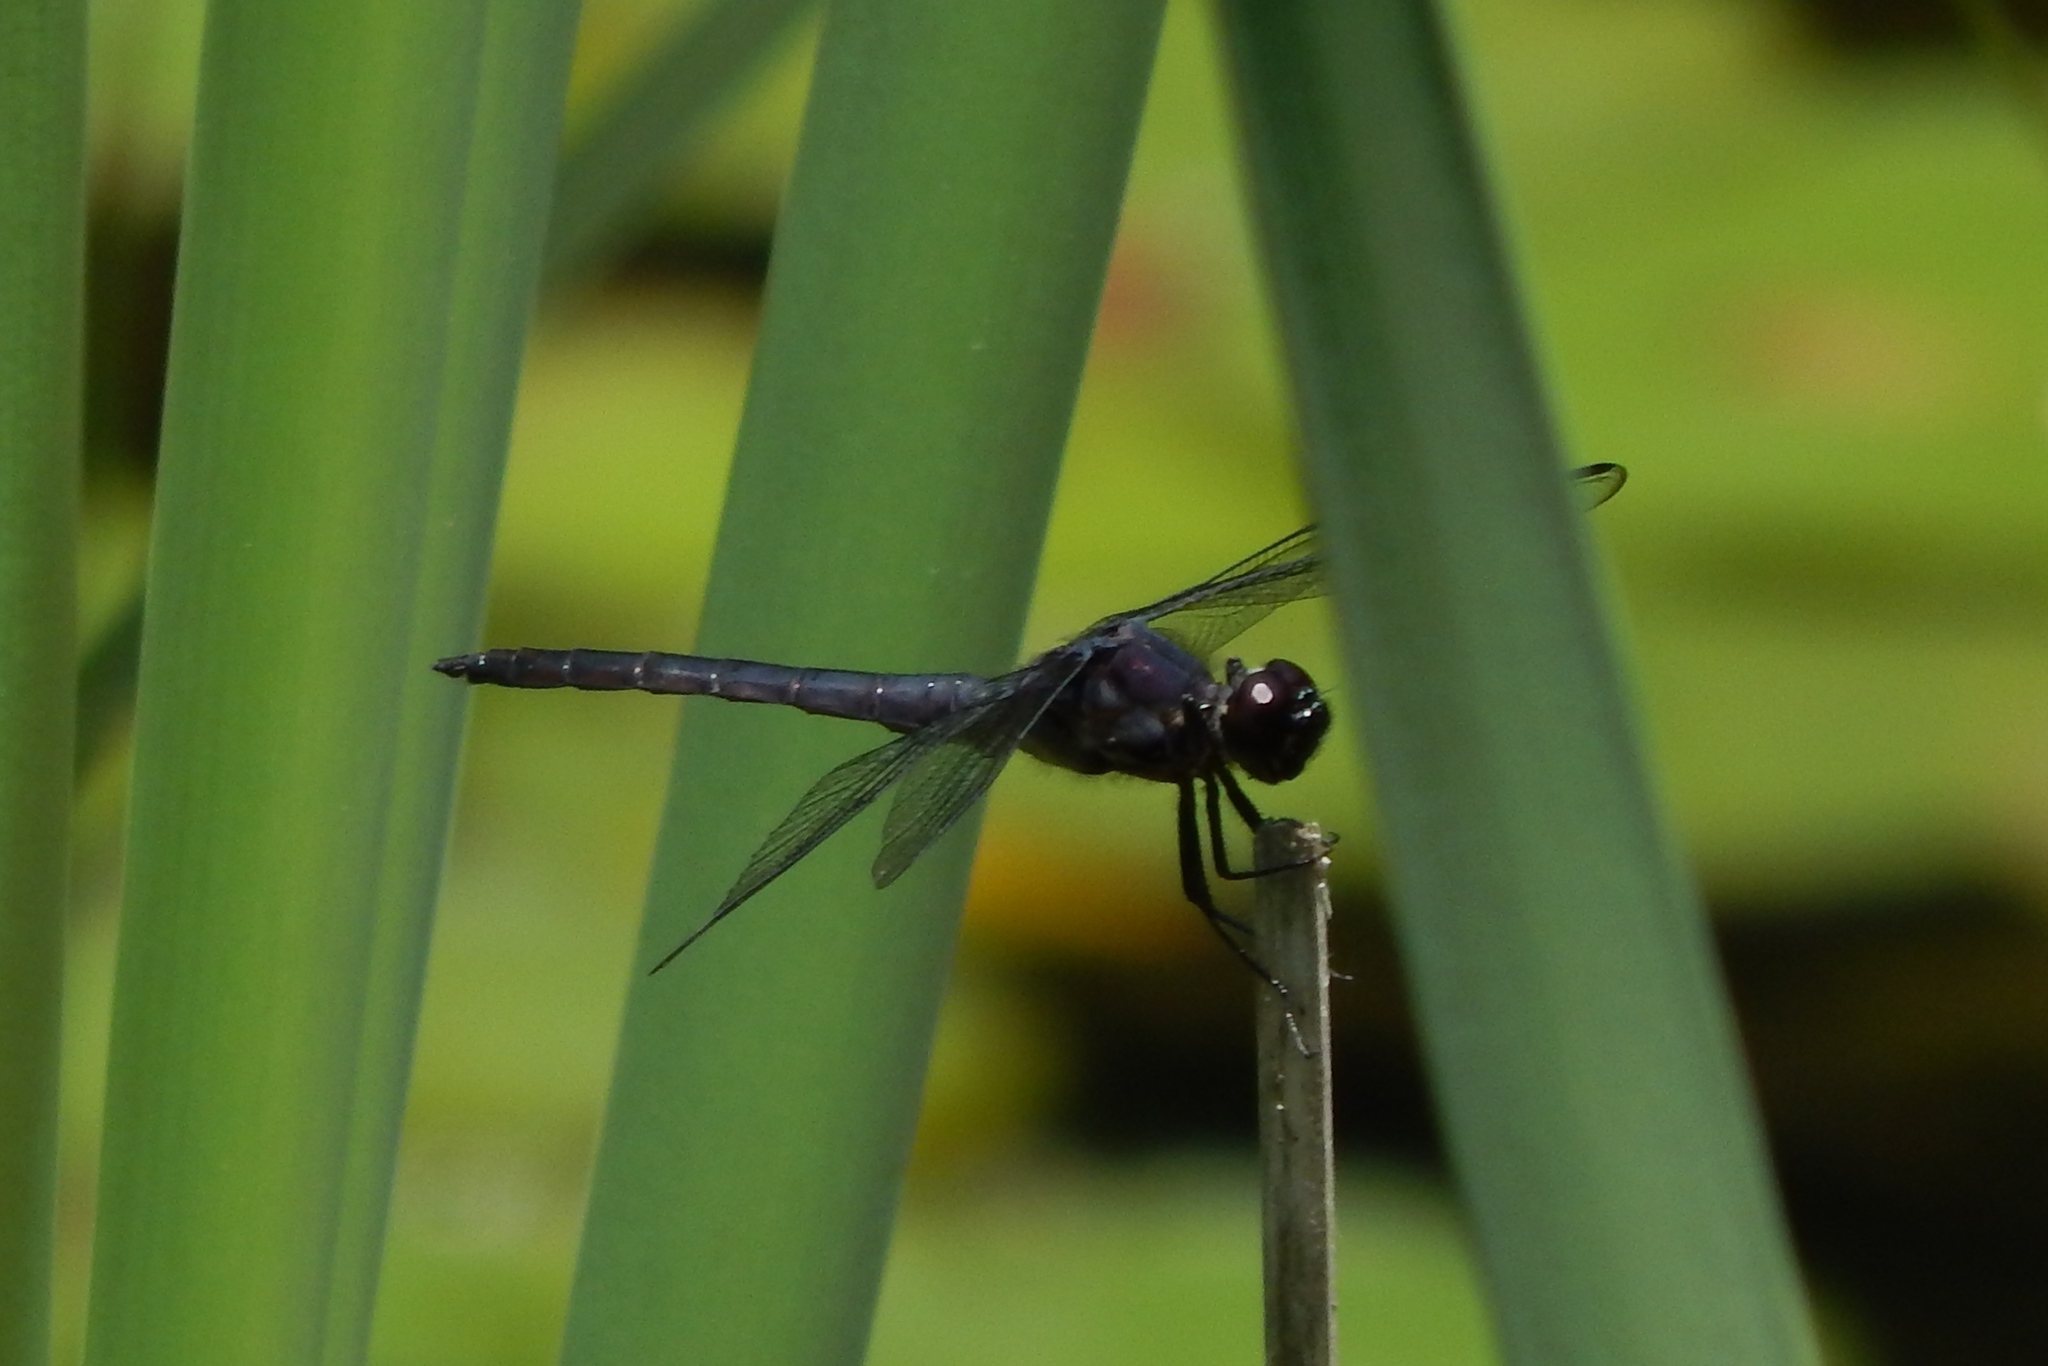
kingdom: Animalia
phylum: Arthropoda
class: Insecta
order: Odonata
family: Libellulidae
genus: Libellula
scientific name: Libellula incesta
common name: Slaty skimmer
